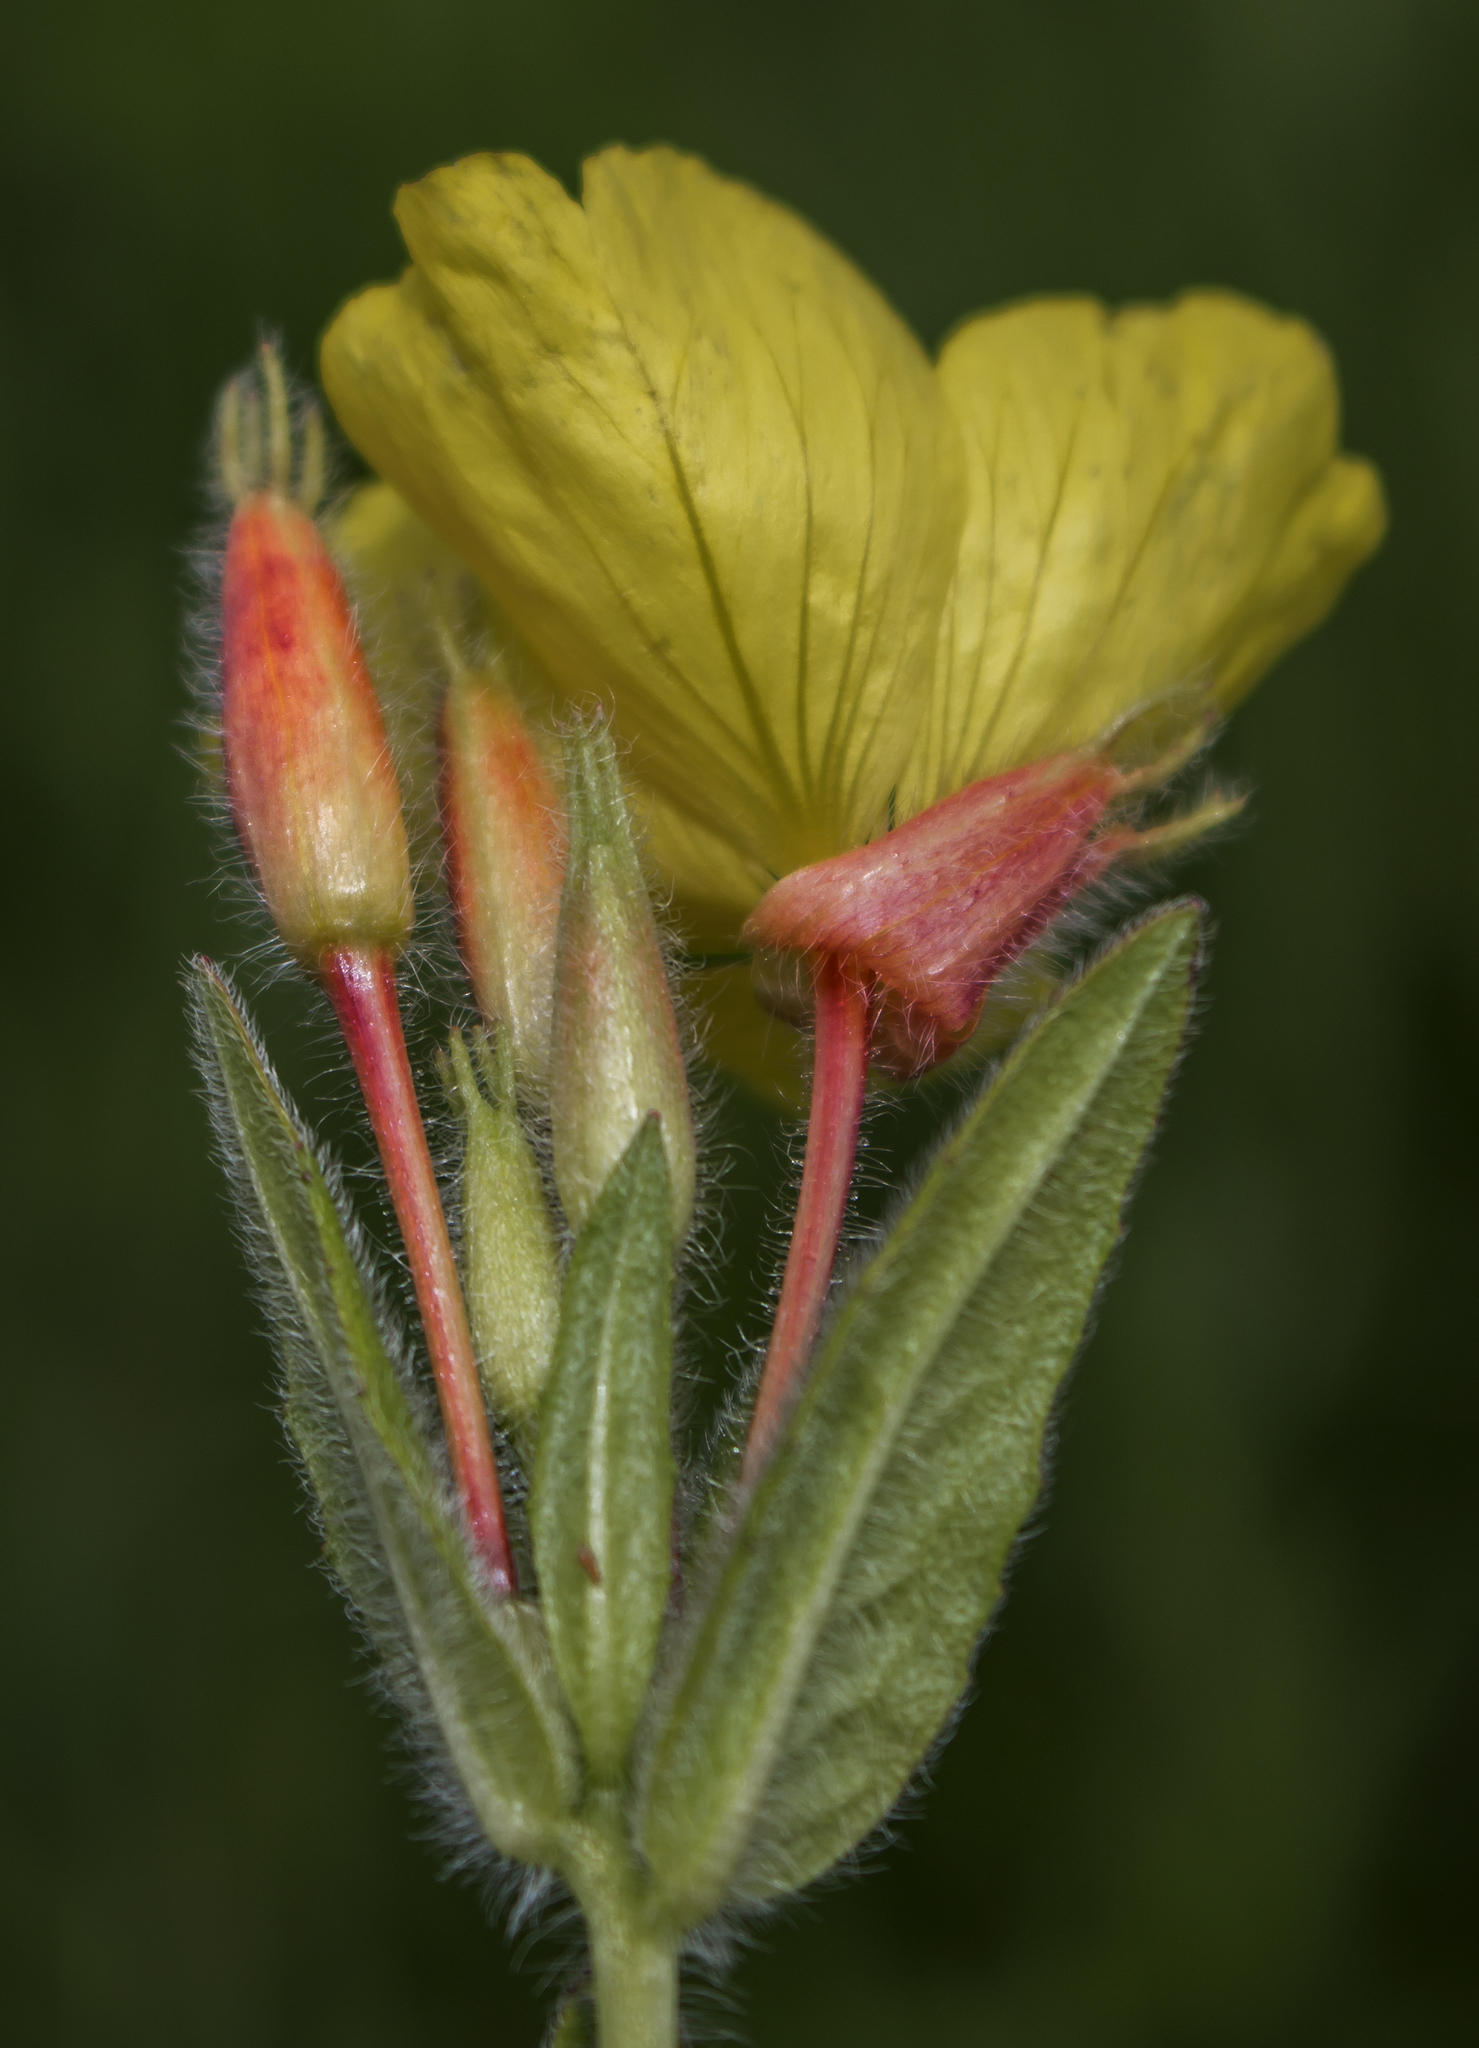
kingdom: Plantae
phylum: Tracheophyta
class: Magnoliopsida
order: Myrtales
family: Onagraceae
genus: Oenothera
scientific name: Oenothera pilosella
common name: Finely-pilose evening-primrose
